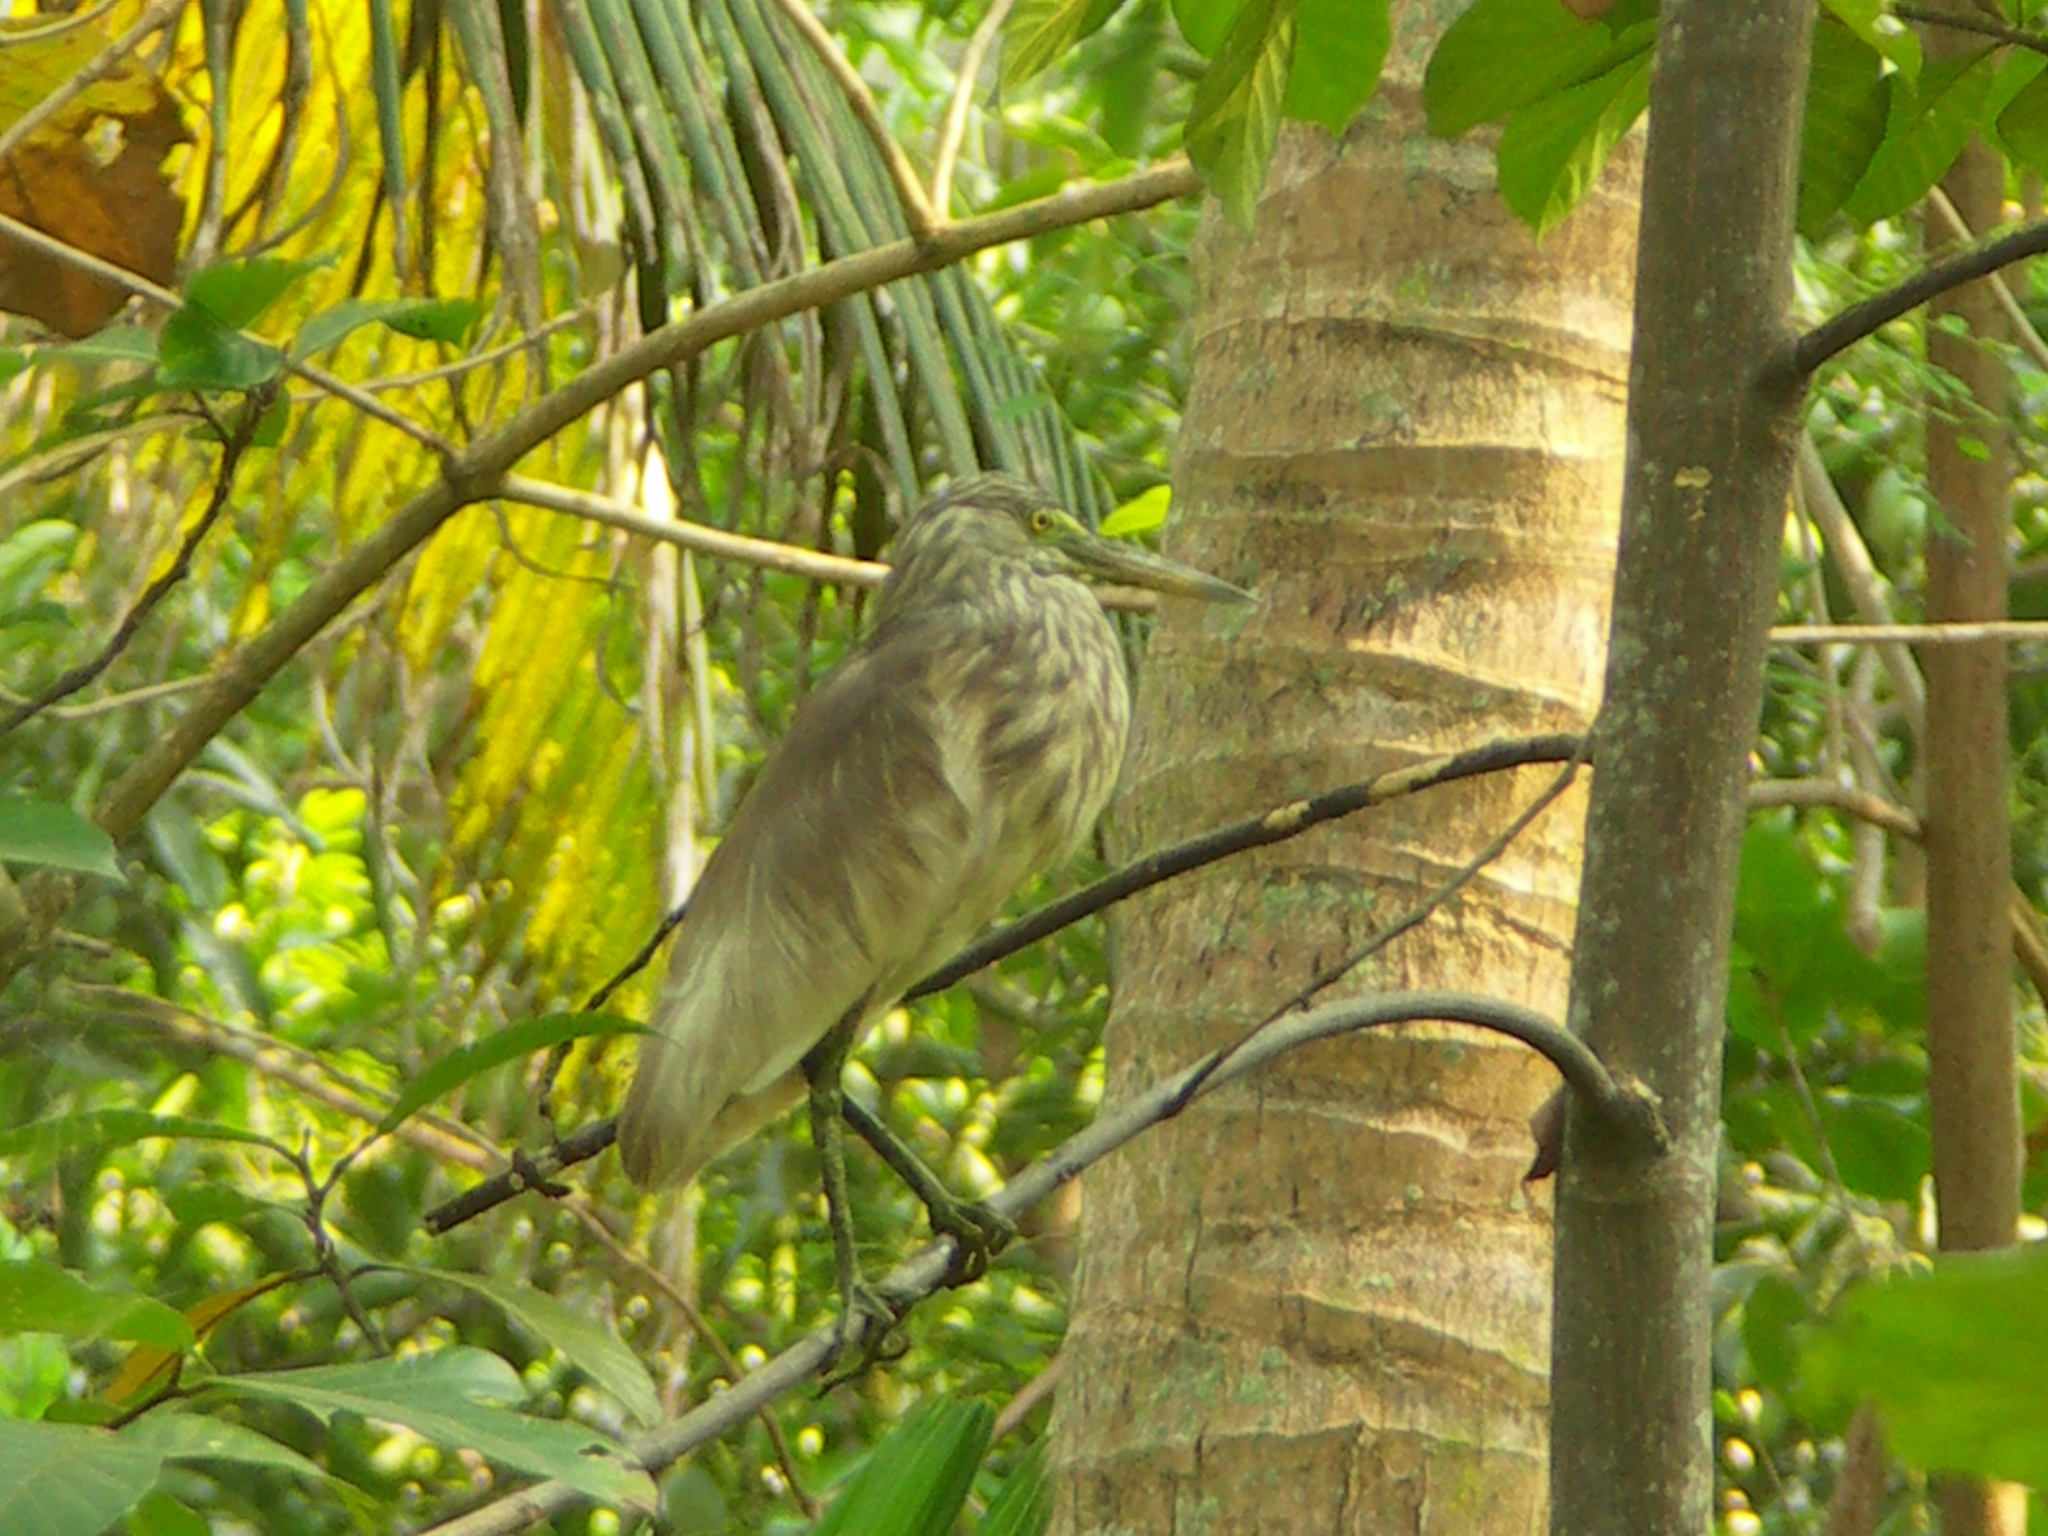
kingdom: Animalia
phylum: Chordata
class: Aves
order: Pelecaniformes
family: Ardeidae
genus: Ardeola
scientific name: Ardeola grayii
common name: Indian pond heron
